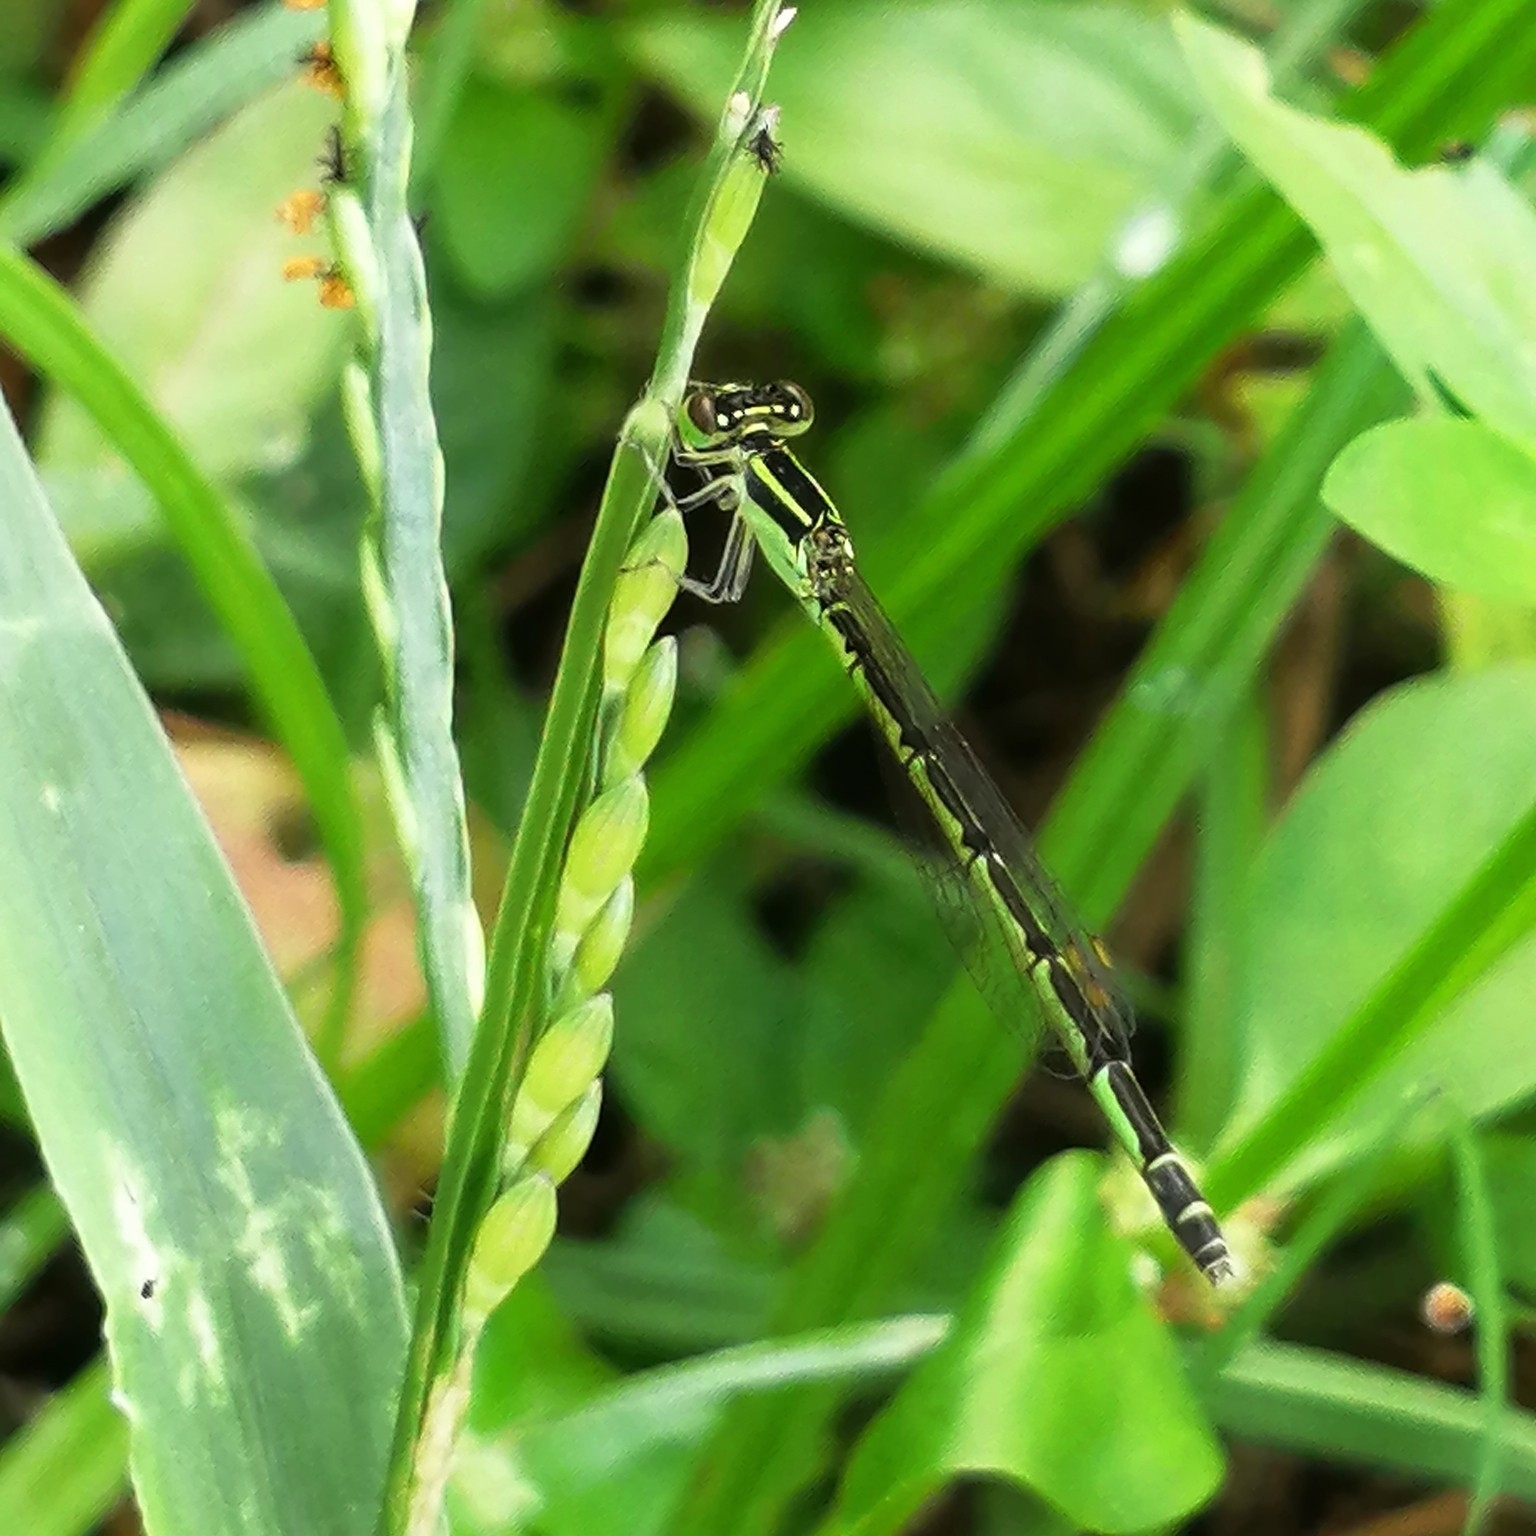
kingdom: Animalia
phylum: Arthropoda
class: Insecta
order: Odonata
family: Coenagrionidae
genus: Agriocnemis
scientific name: Agriocnemis keralensis
